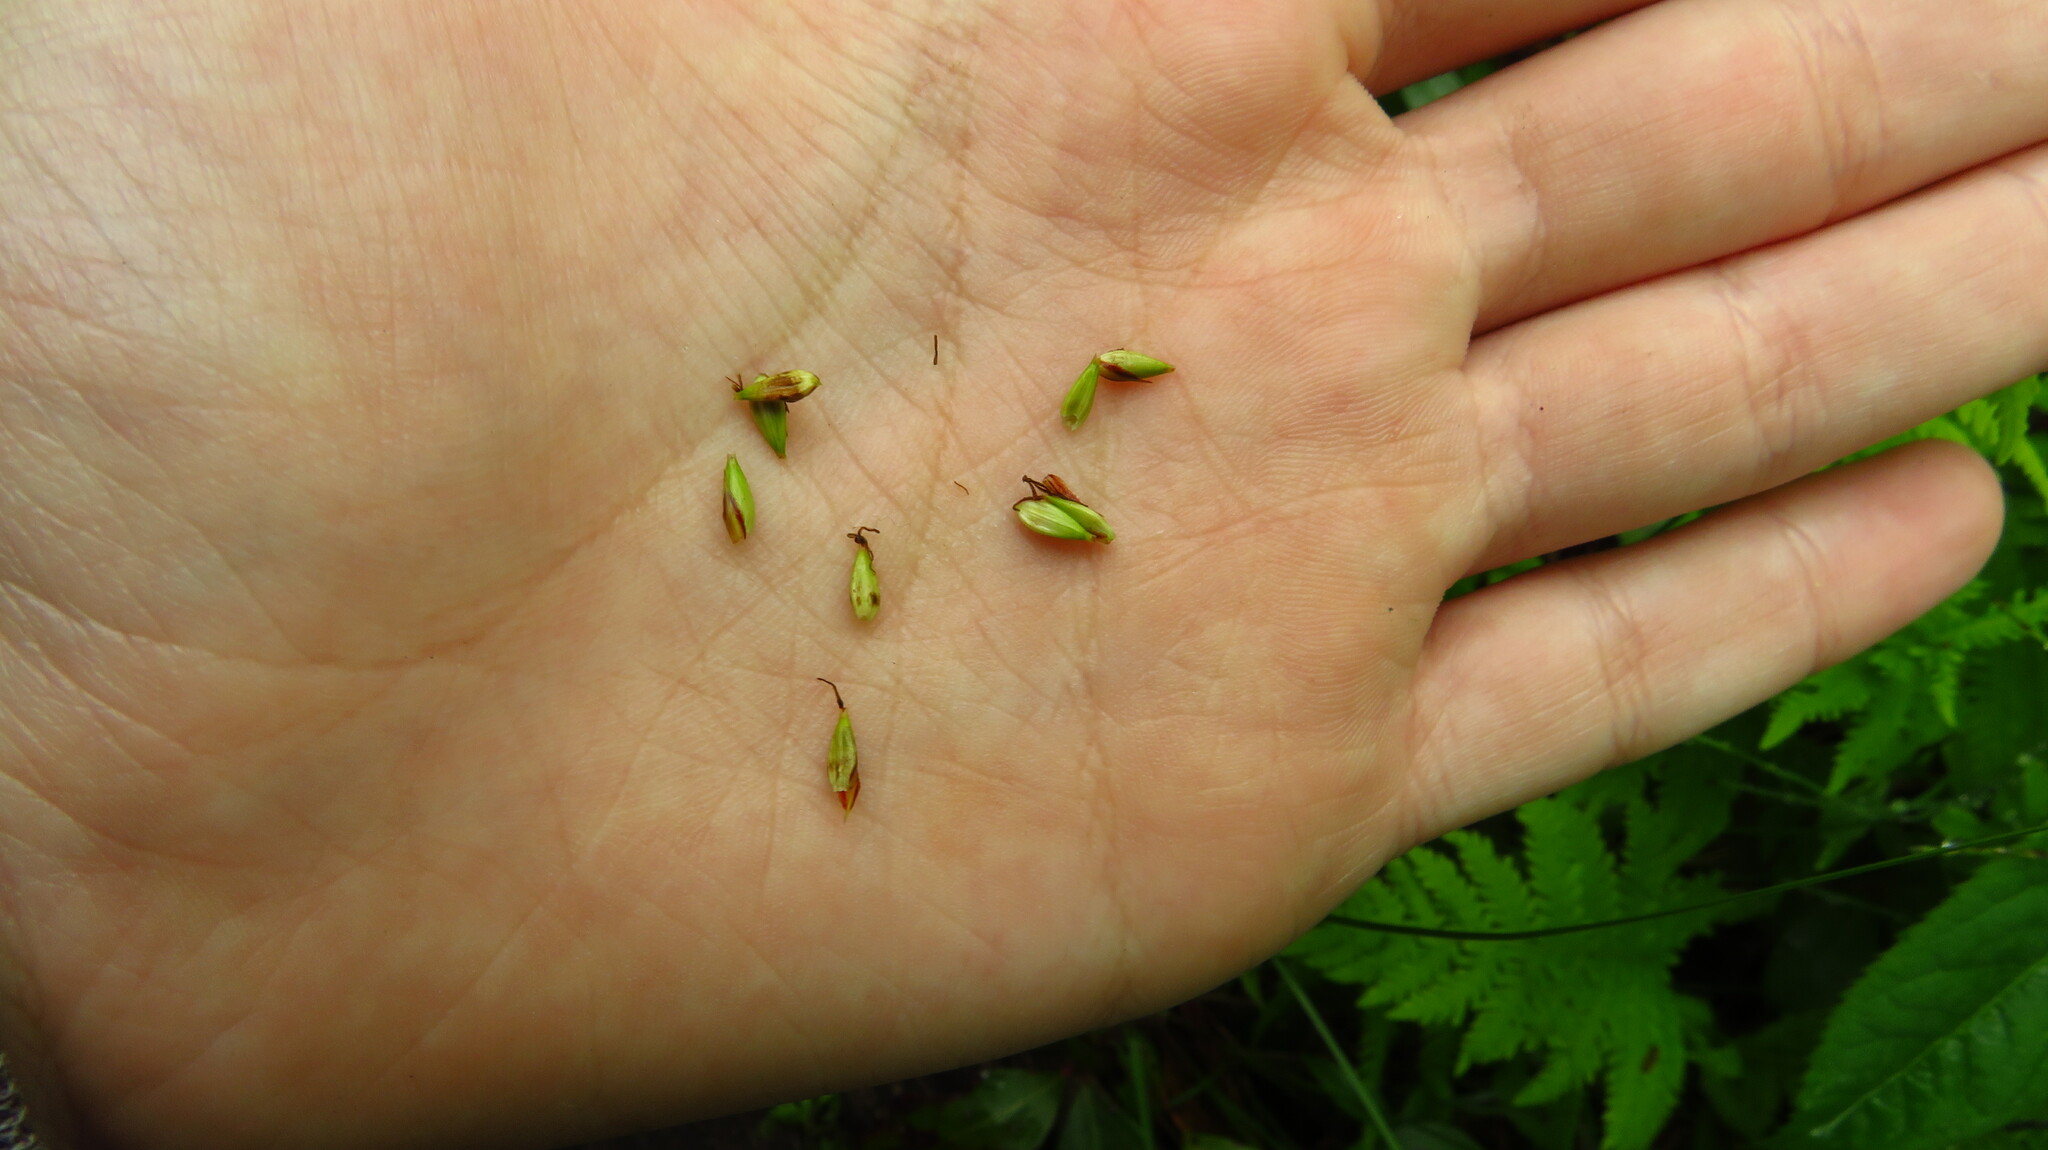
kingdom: Plantae
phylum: Tracheophyta
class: Liliopsida
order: Poales
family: Cyperaceae
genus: Carex
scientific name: Carex lacustris
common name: Common lake sedge
